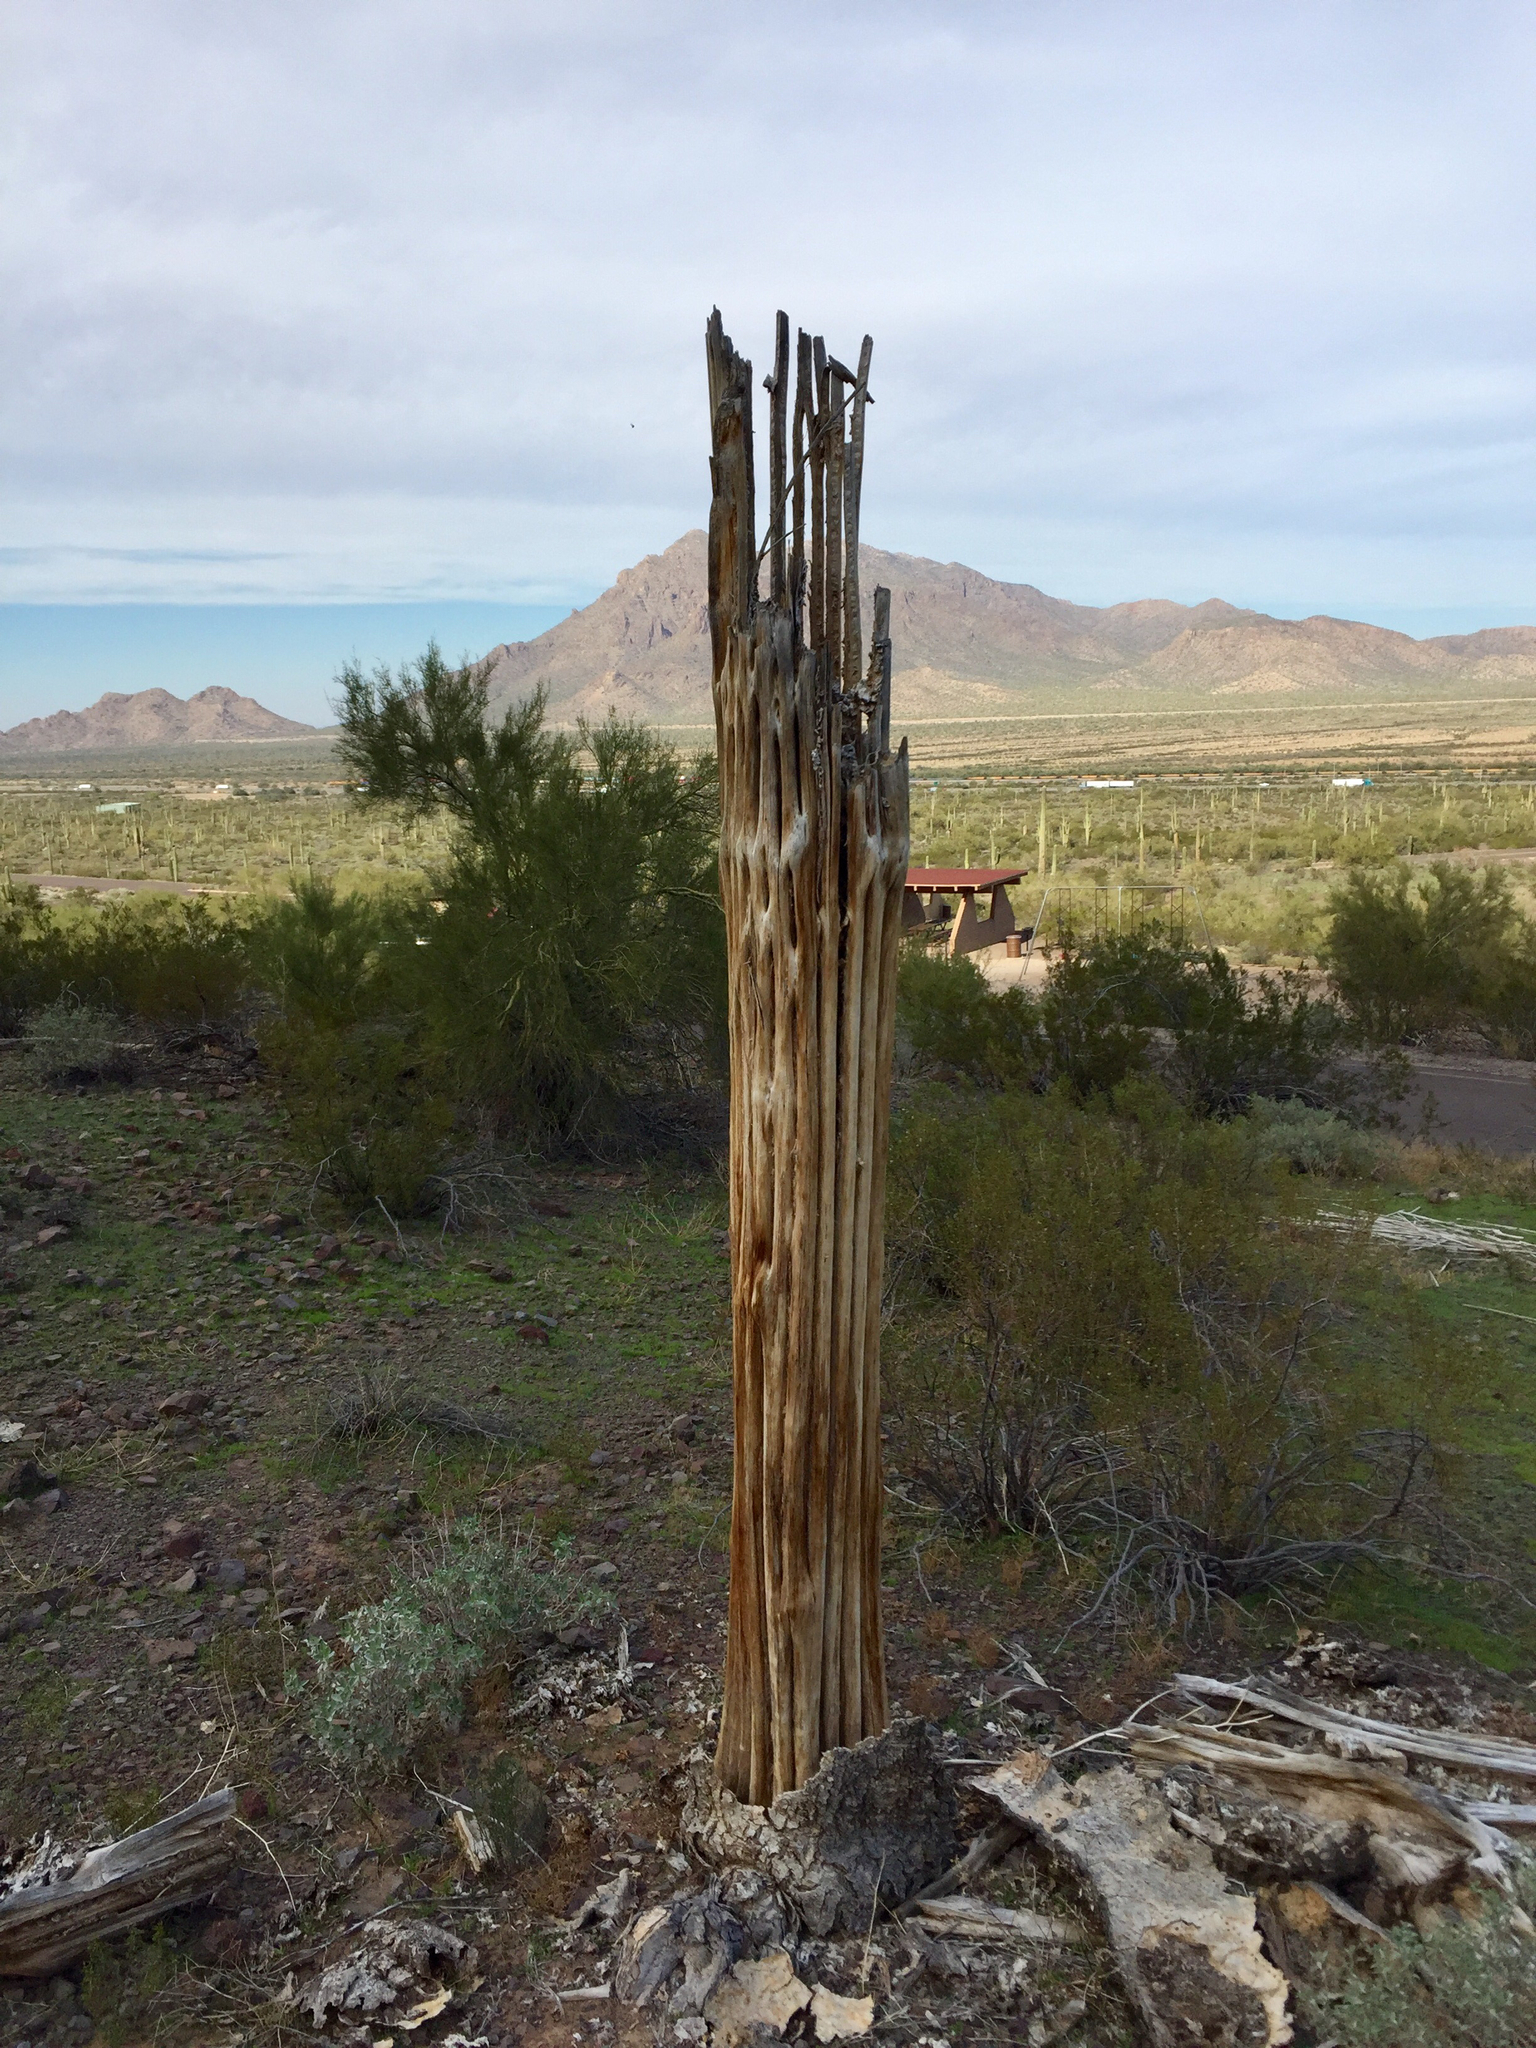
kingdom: Plantae
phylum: Tracheophyta
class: Magnoliopsida
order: Caryophyllales
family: Cactaceae
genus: Carnegiea
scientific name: Carnegiea gigantea
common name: Saguaro
